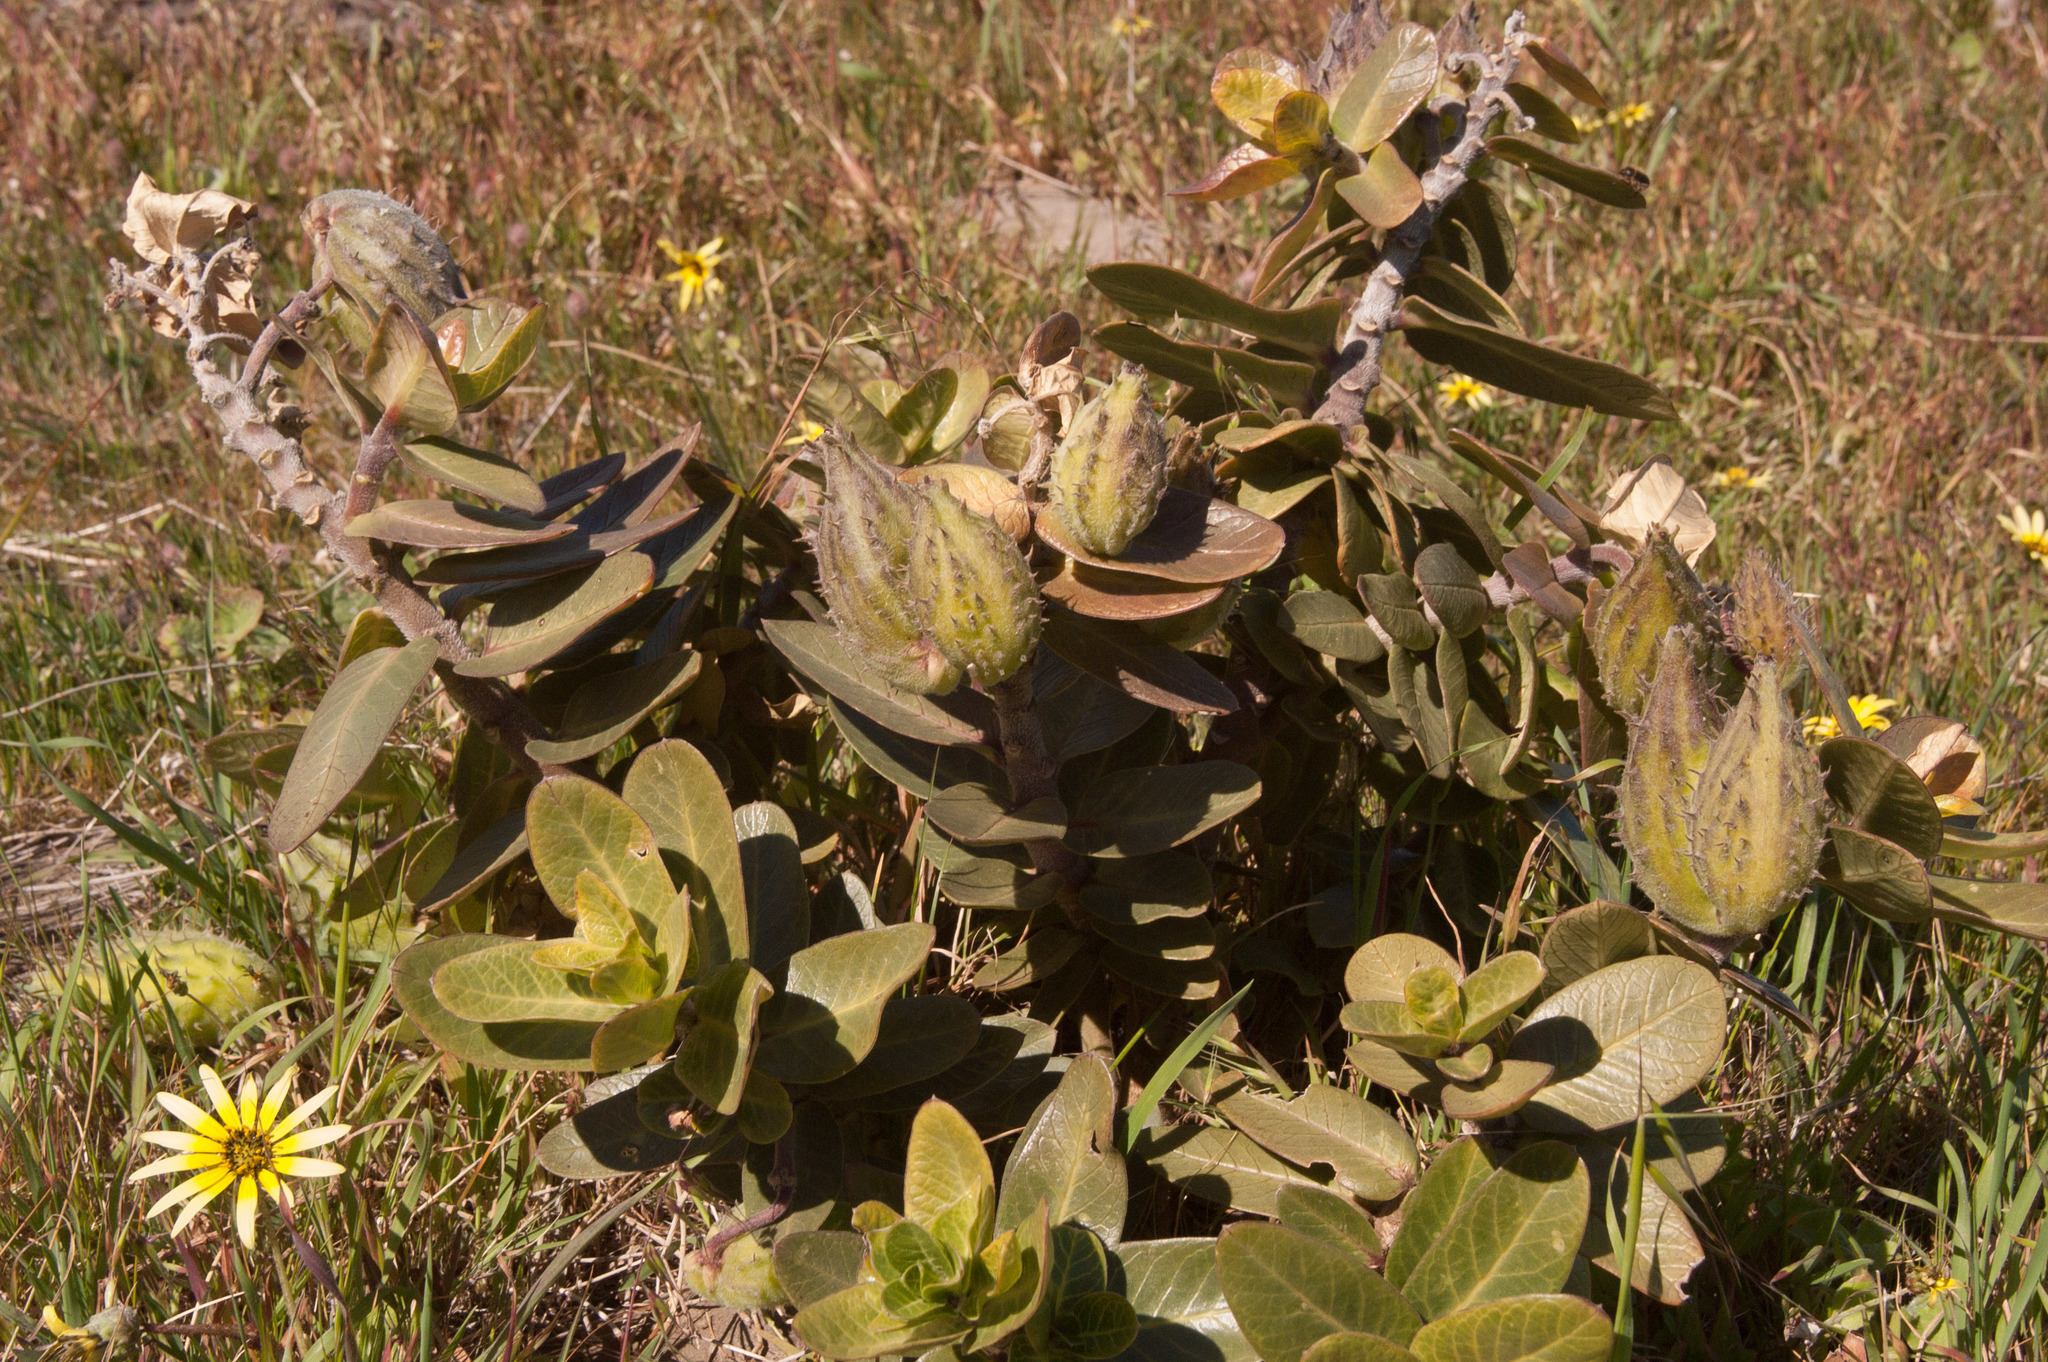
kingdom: Plantae
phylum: Tracheophyta
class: Magnoliopsida
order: Gentianales
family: Apocynaceae
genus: Gomphocarpus
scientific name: Gomphocarpus cancellatus
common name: Wild cotton
